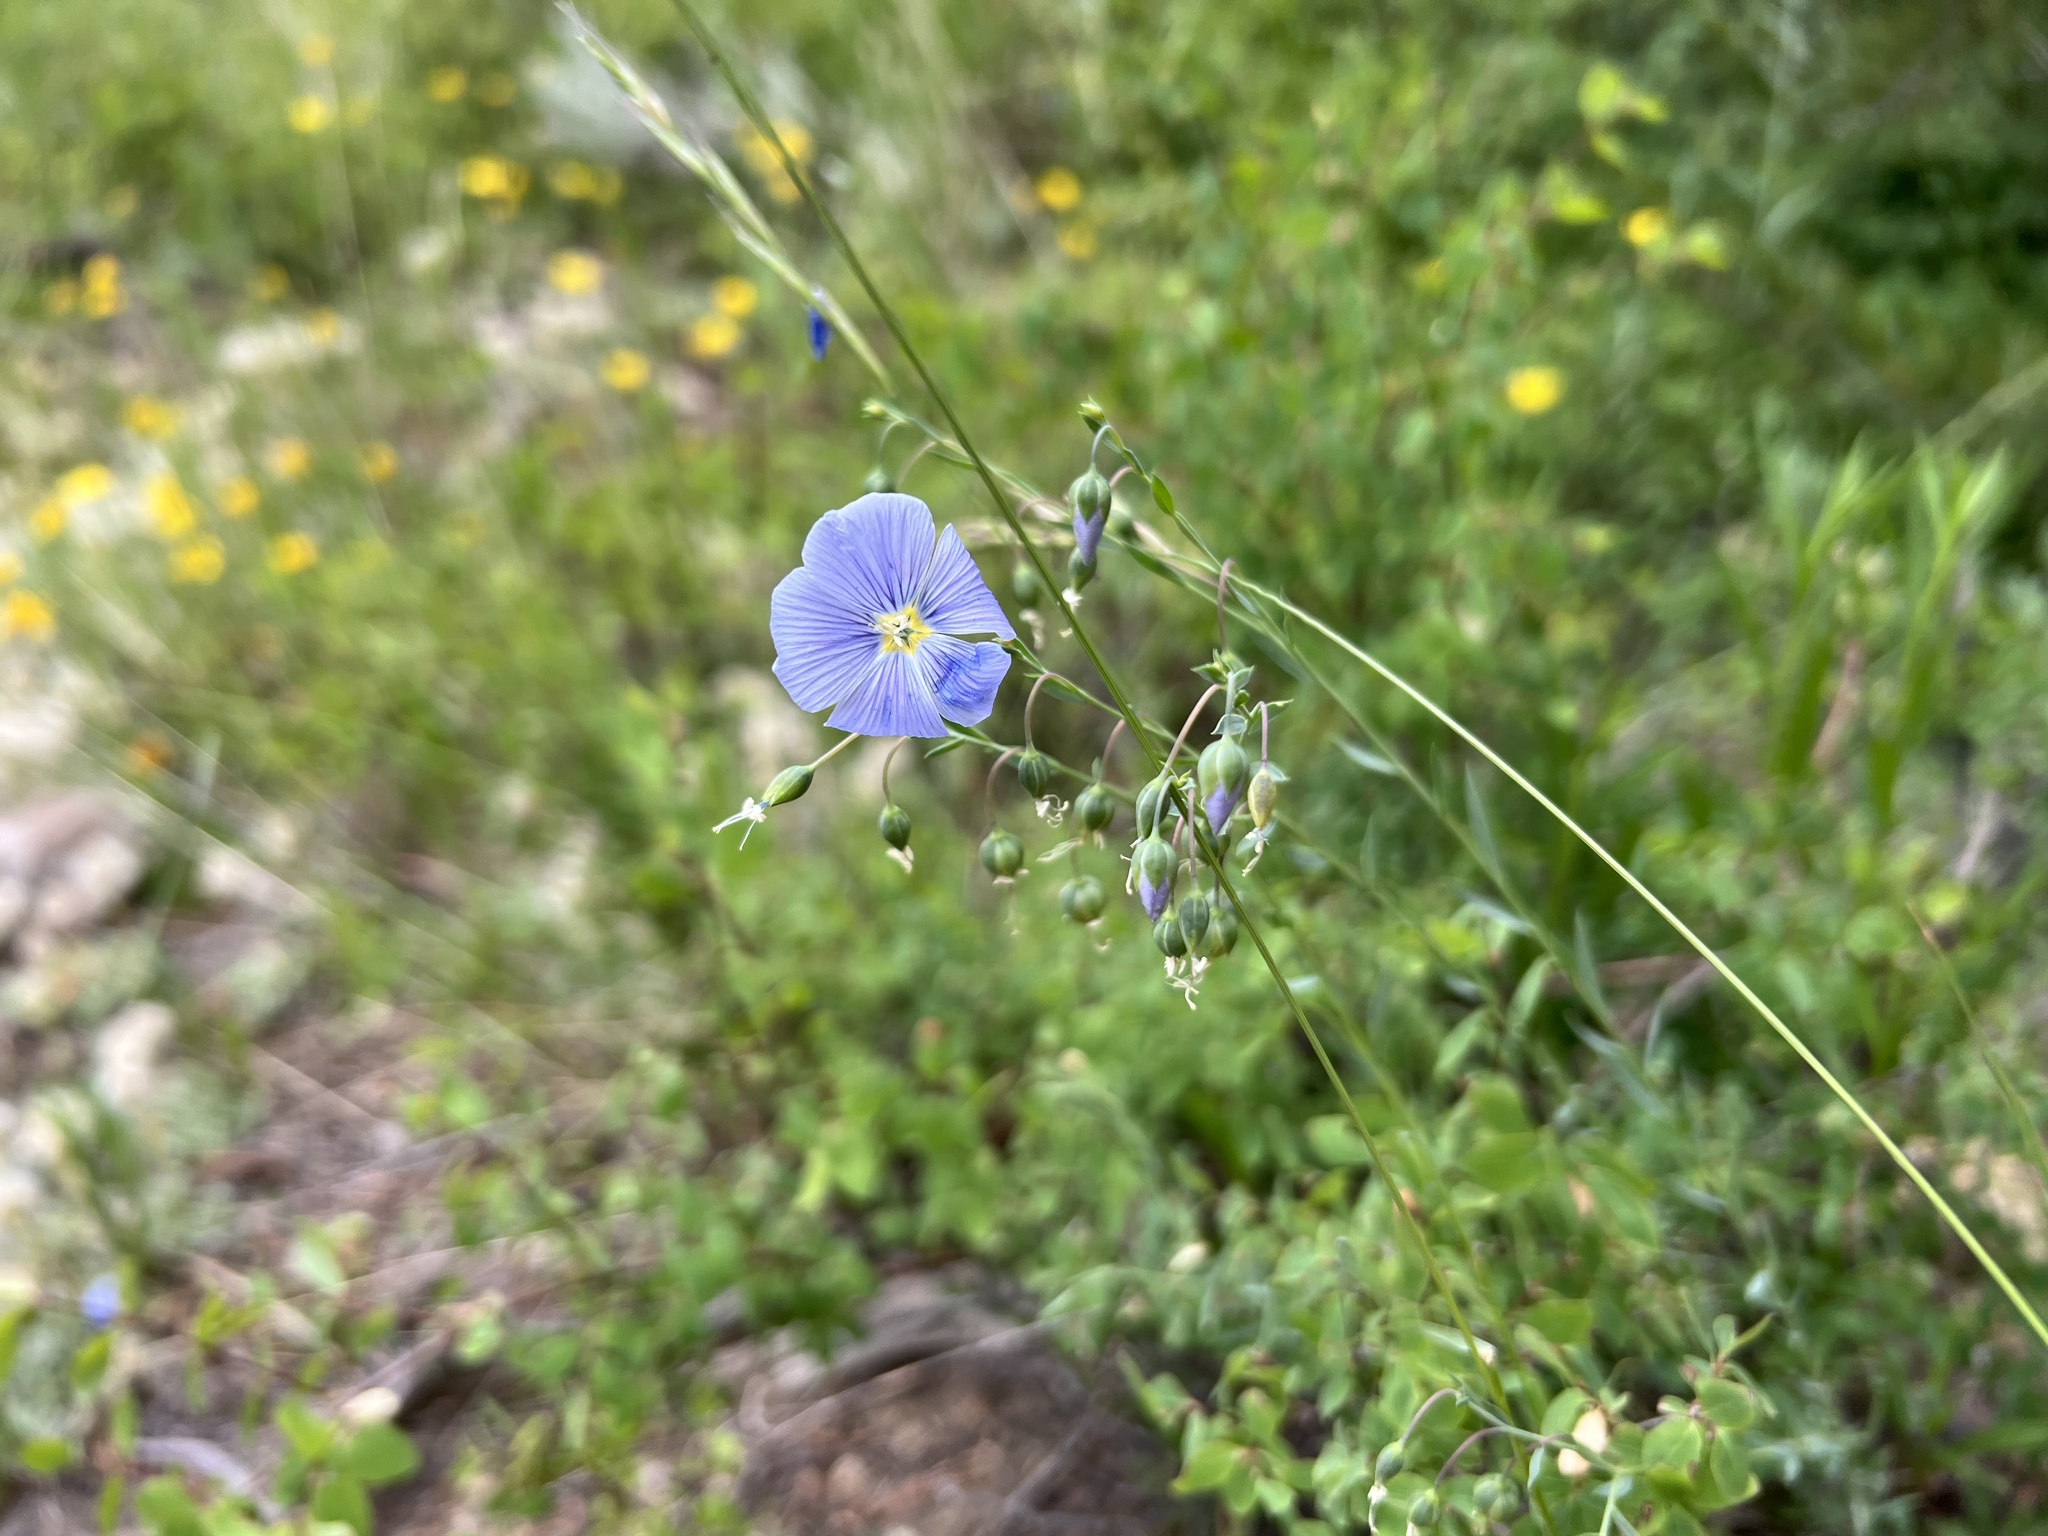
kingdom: Plantae
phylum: Tracheophyta
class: Magnoliopsida
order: Malpighiales
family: Linaceae
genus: Linum
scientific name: Linum lewisii
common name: Prairie flax
